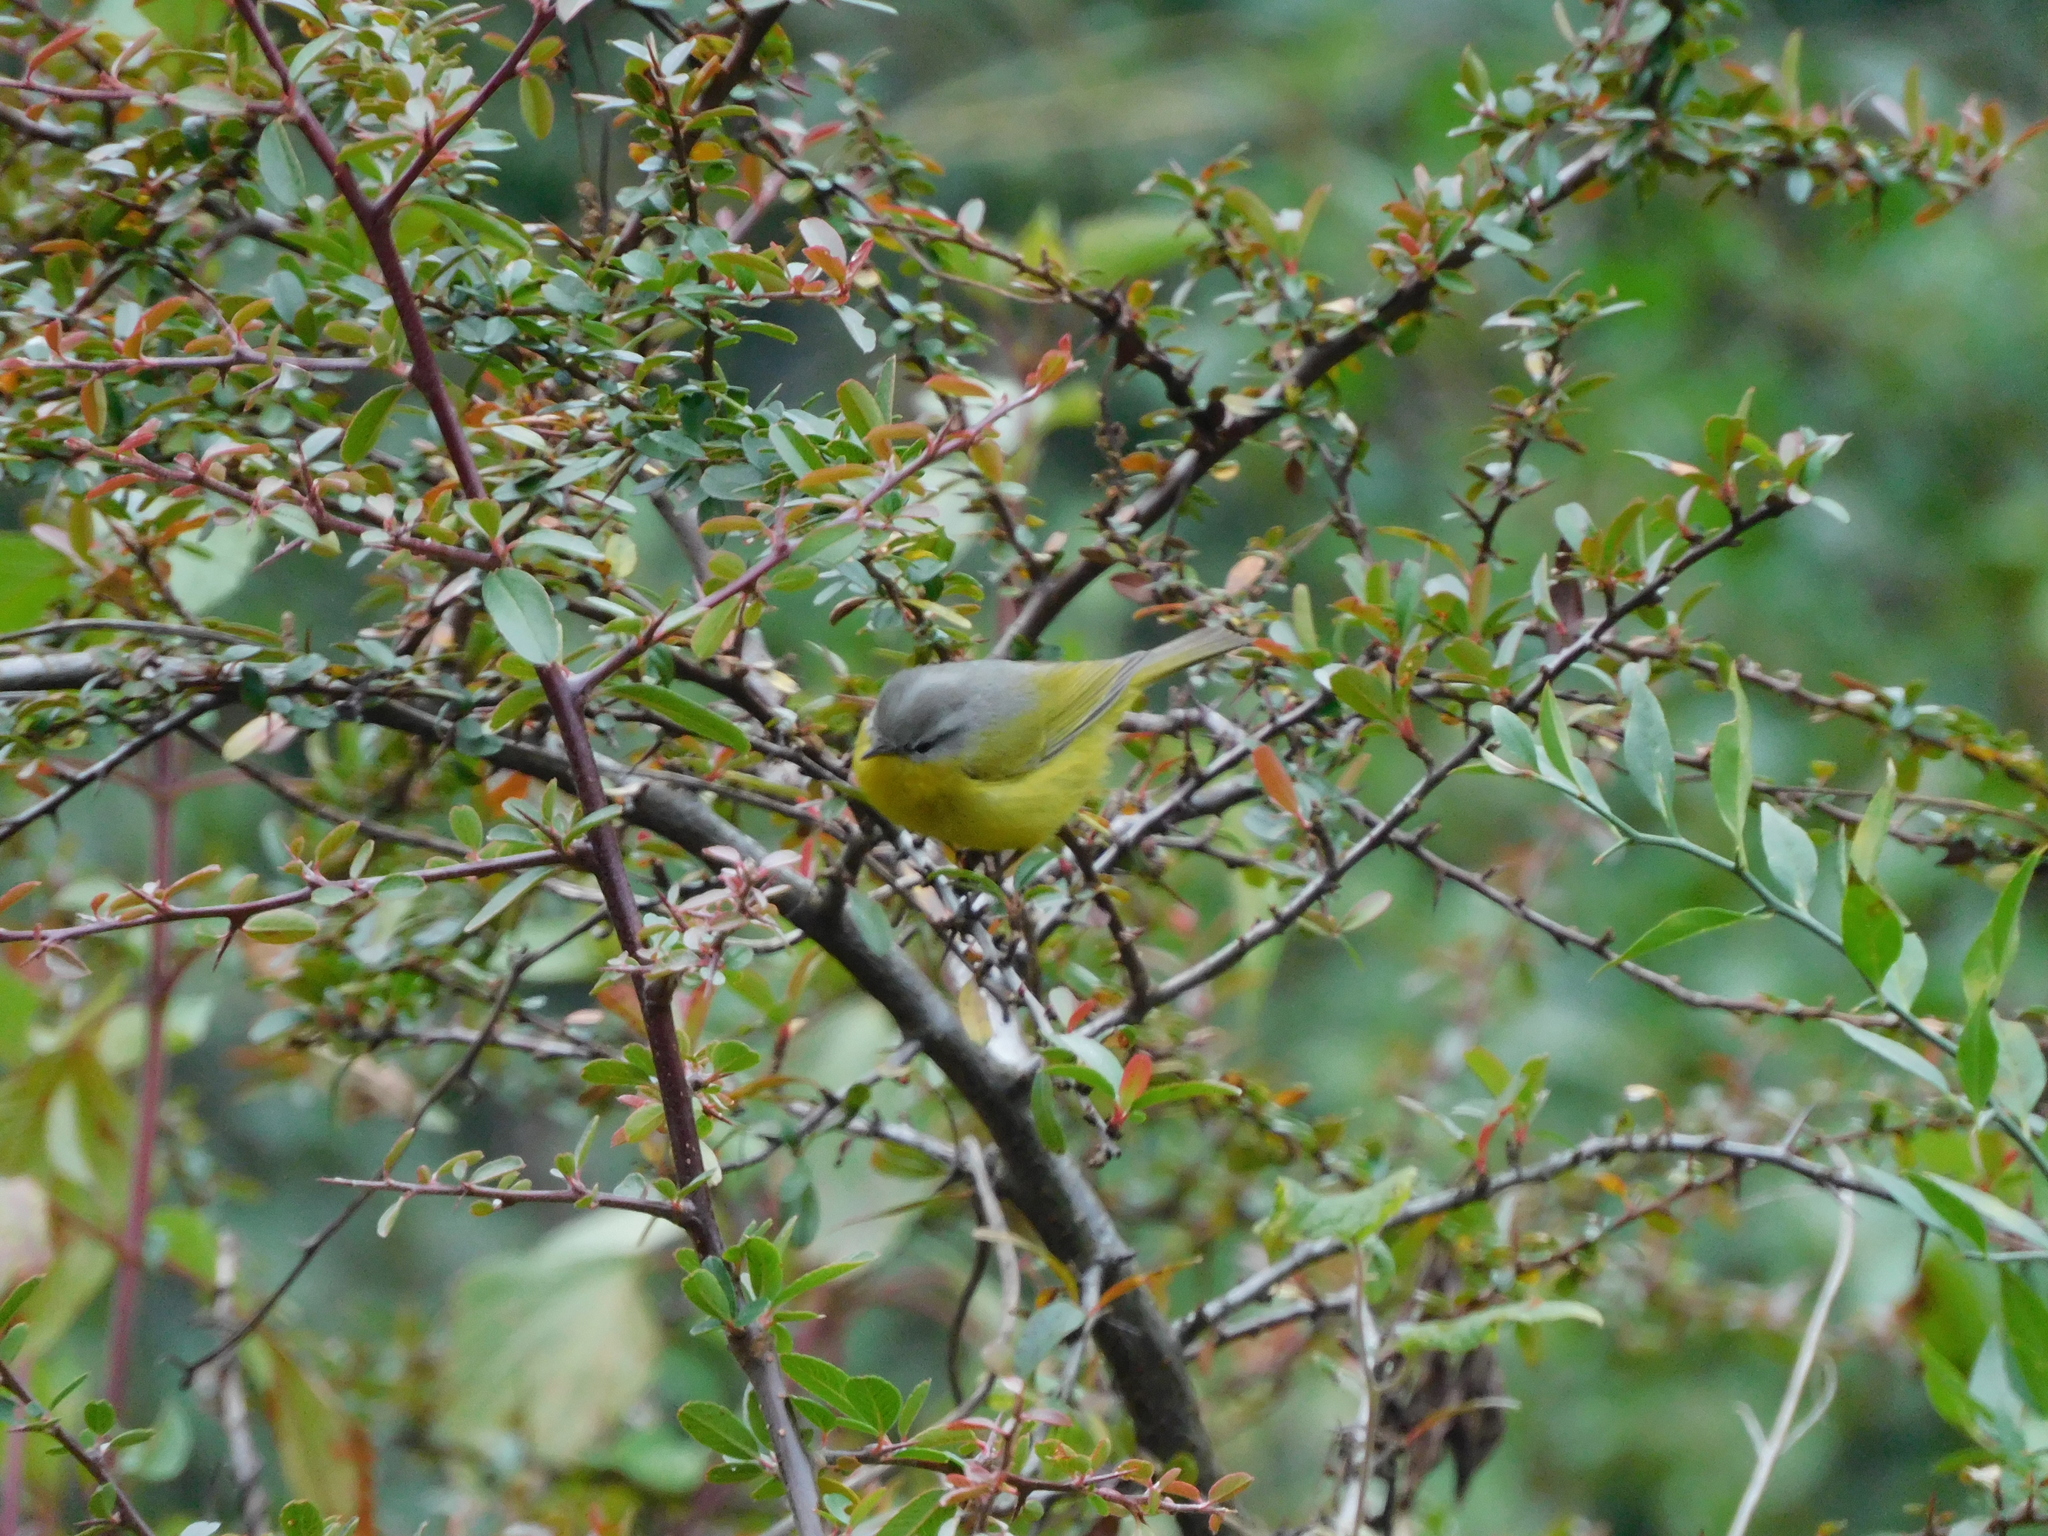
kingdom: Animalia
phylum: Chordata
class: Aves
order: Passeriformes
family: Phylloscopidae
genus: Phylloscopus
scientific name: Phylloscopus xanthoschistos
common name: Grey-hooded warbler
